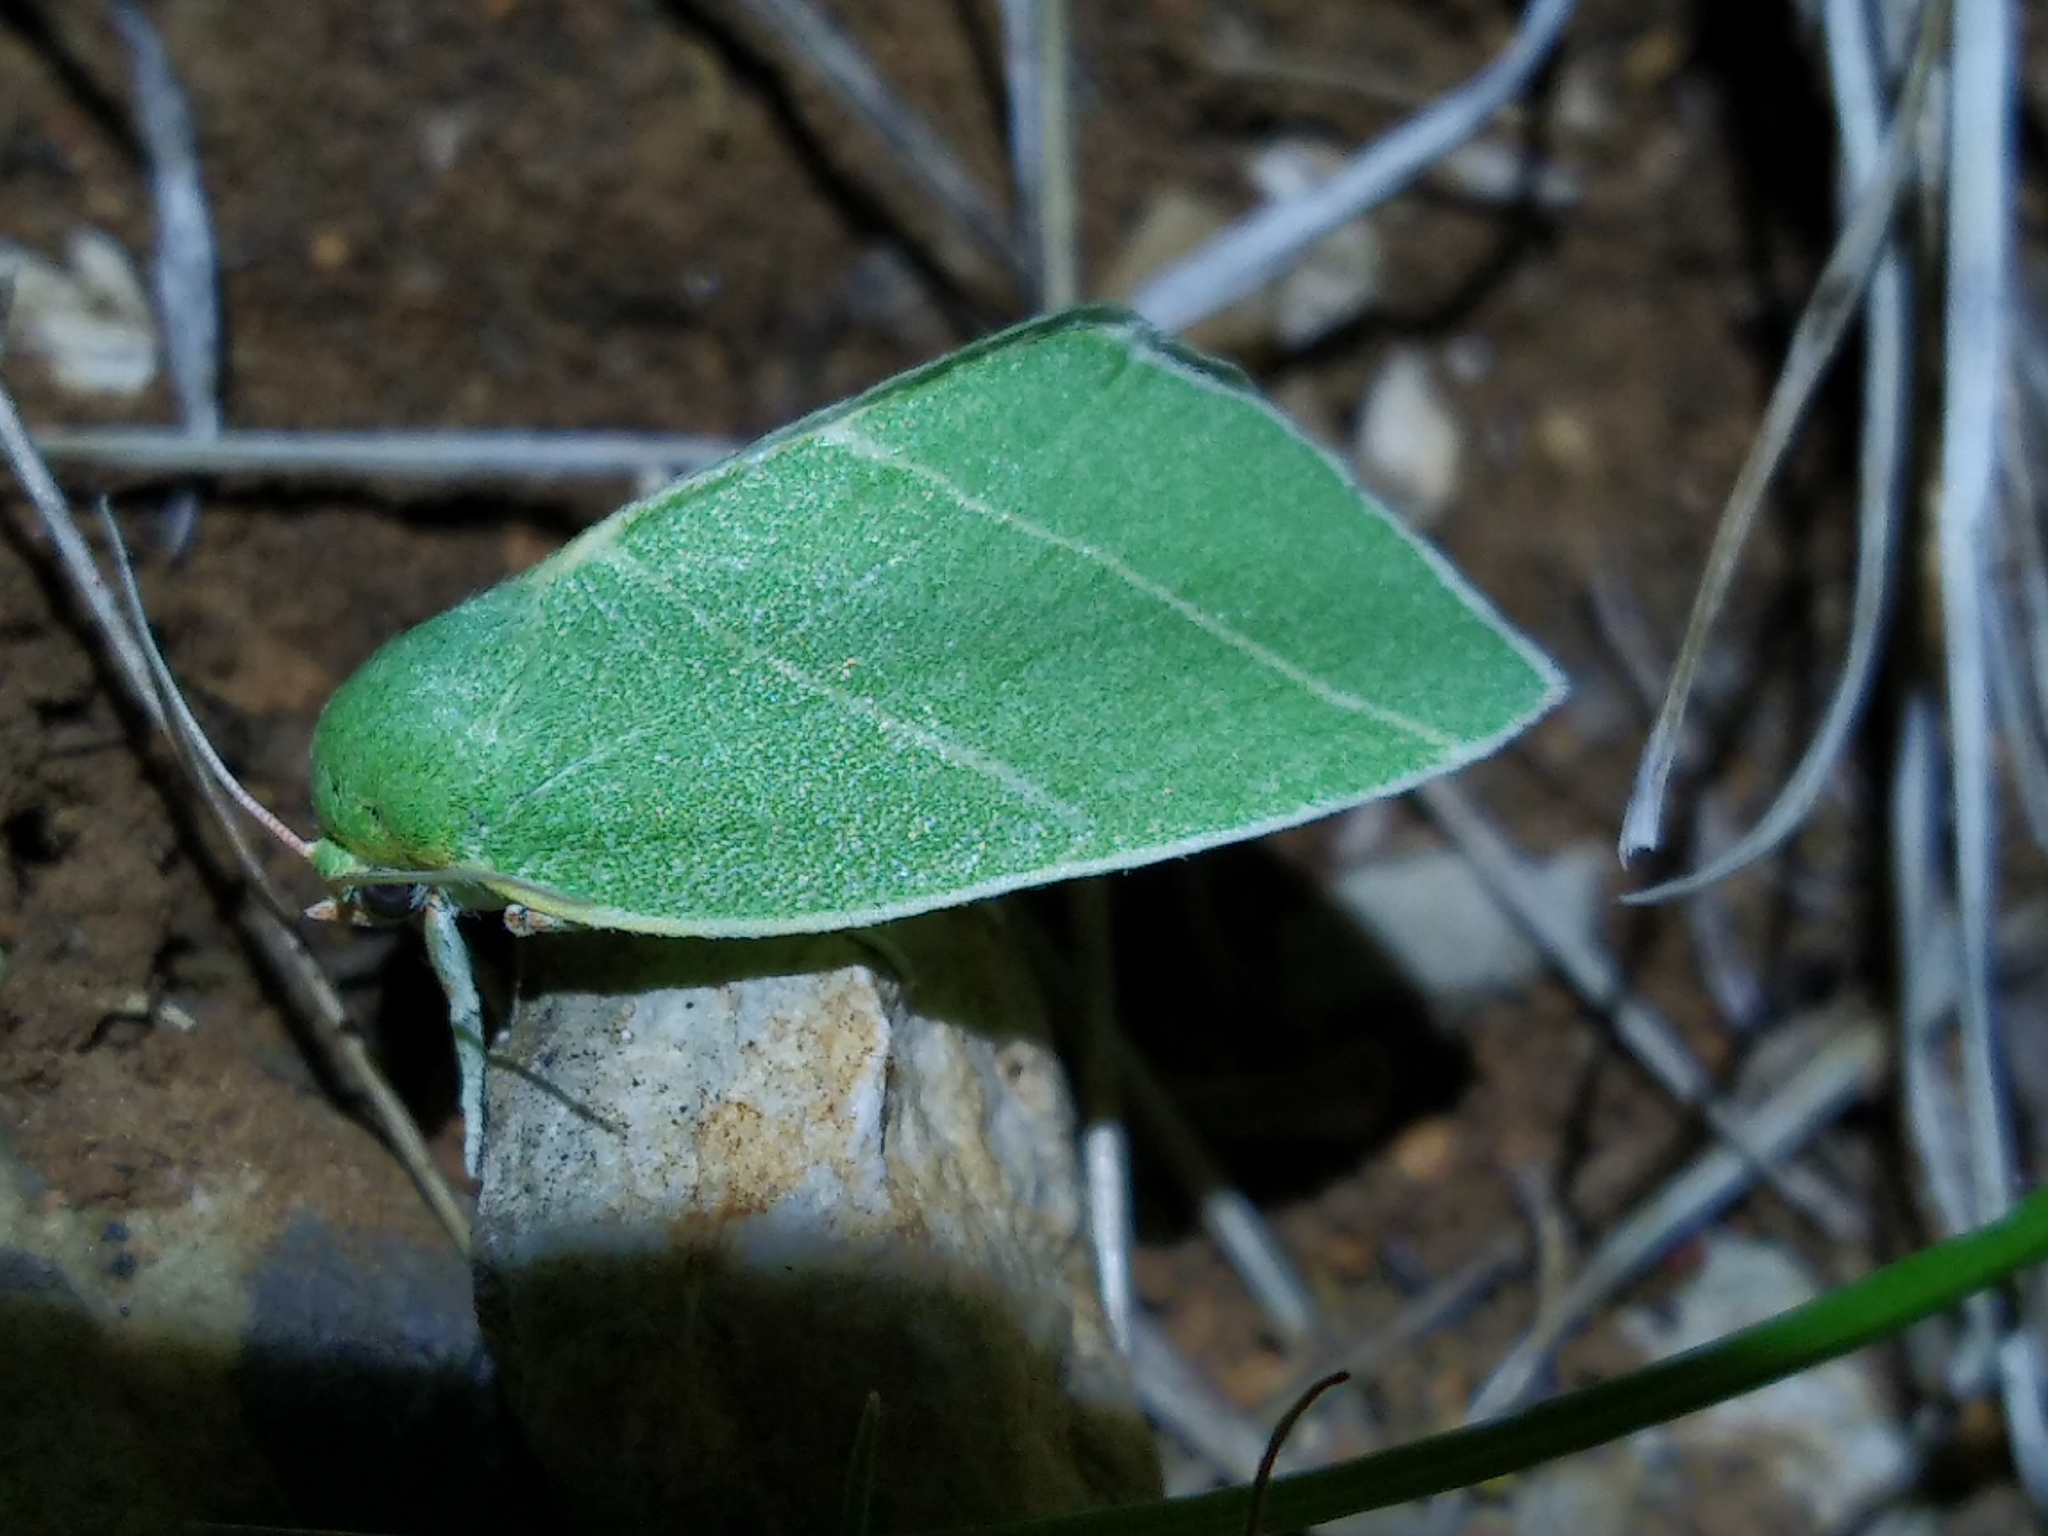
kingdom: Animalia
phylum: Arthropoda
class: Insecta
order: Lepidoptera
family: Nolidae
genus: Bena
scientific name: Bena bicolorana
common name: Scarce silver-lines
